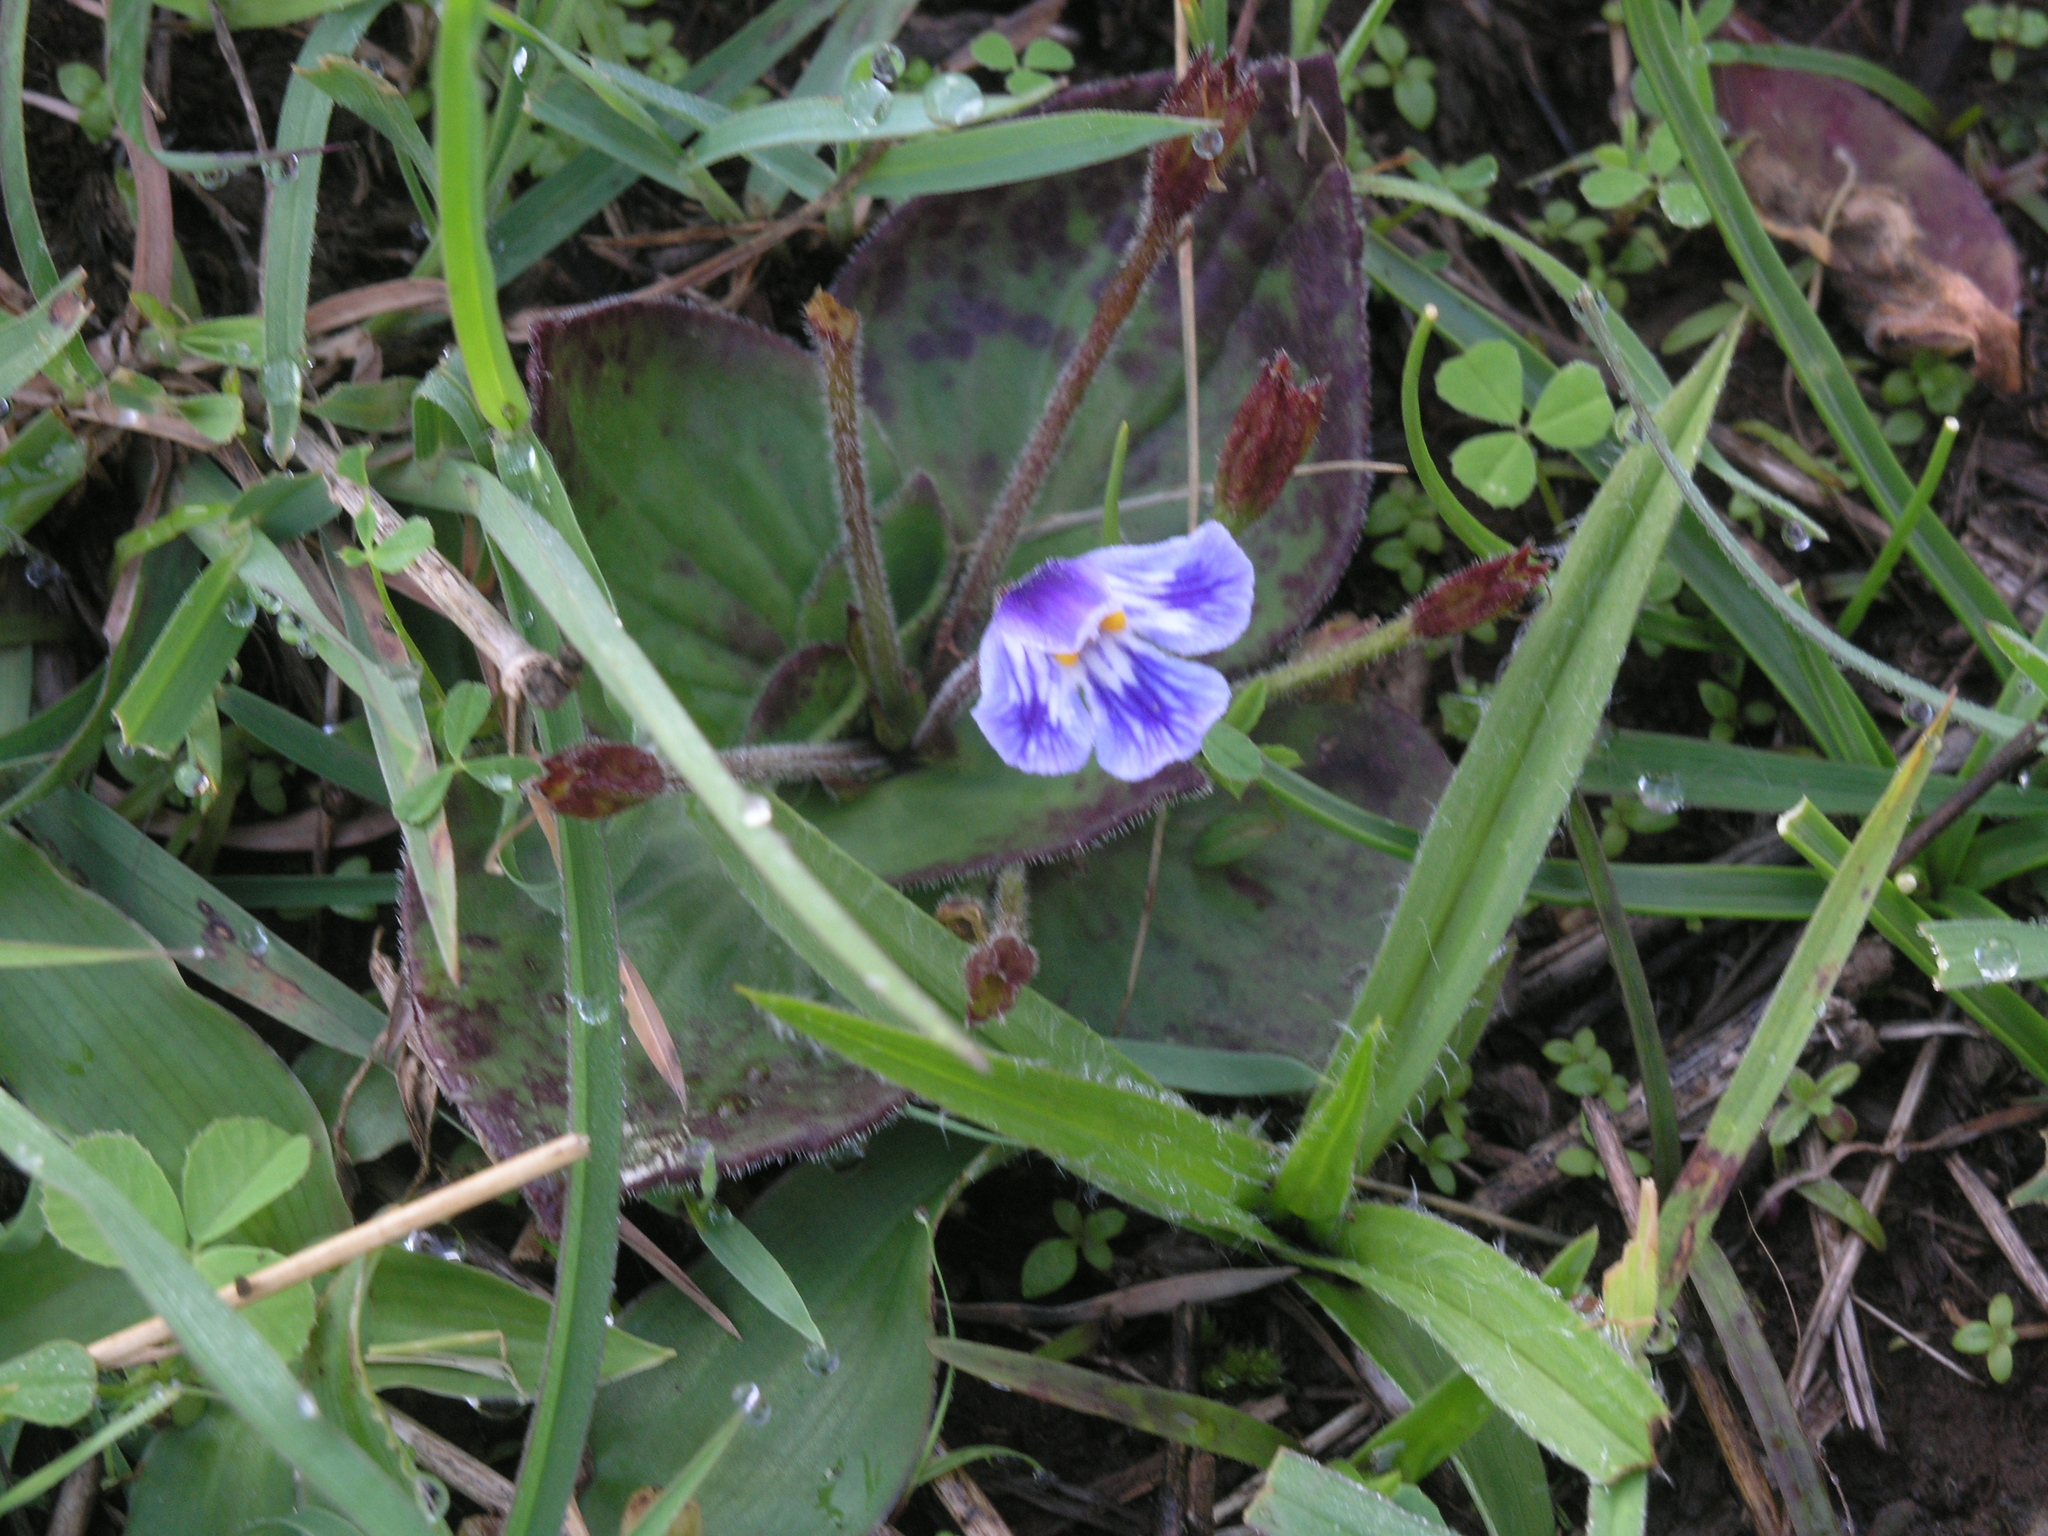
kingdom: Plantae
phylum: Tracheophyta
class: Magnoliopsida
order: Lamiales
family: Linderniaceae
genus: Craterostigma
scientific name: Craterostigma plantagineum
